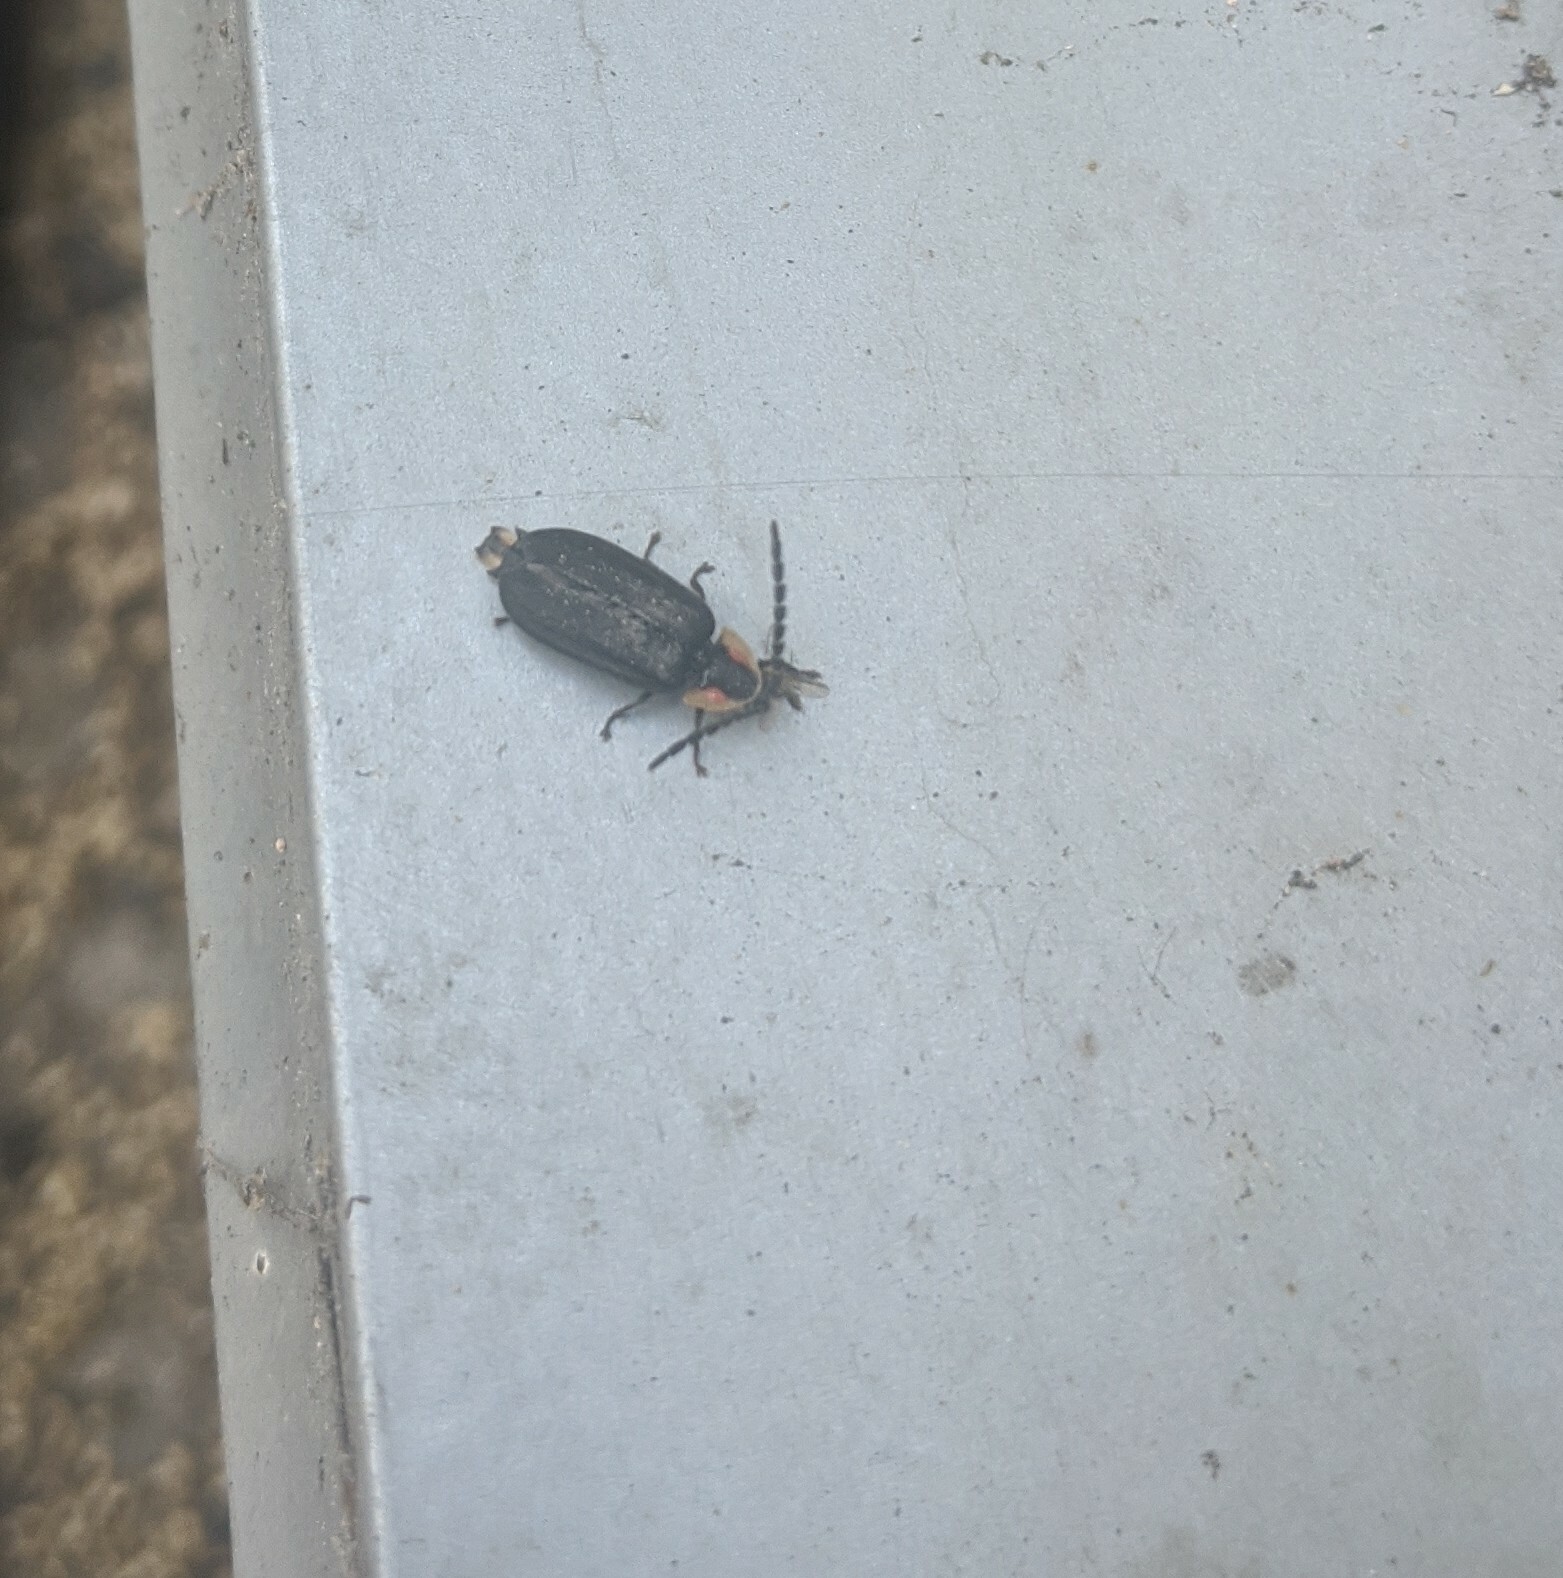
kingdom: Animalia
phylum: Arthropoda
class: Insecta
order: Coleoptera
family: Lampyridae
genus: Lucidota
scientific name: Lucidota atra
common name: Black firefly
